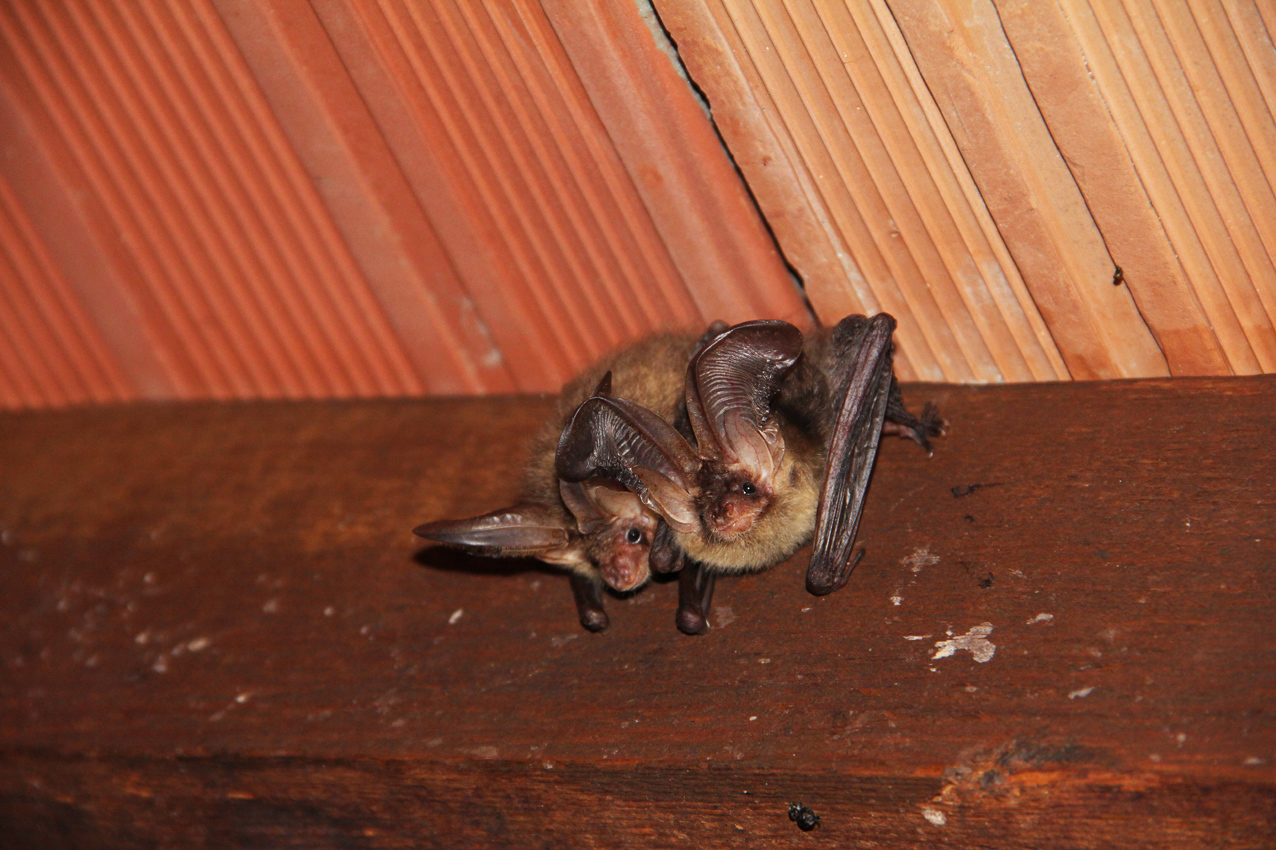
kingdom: Animalia
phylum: Chordata
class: Mammalia
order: Chiroptera
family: Vespertilionidae
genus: Plecotus
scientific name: Plecotus auritus
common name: Brown long-eared bat
